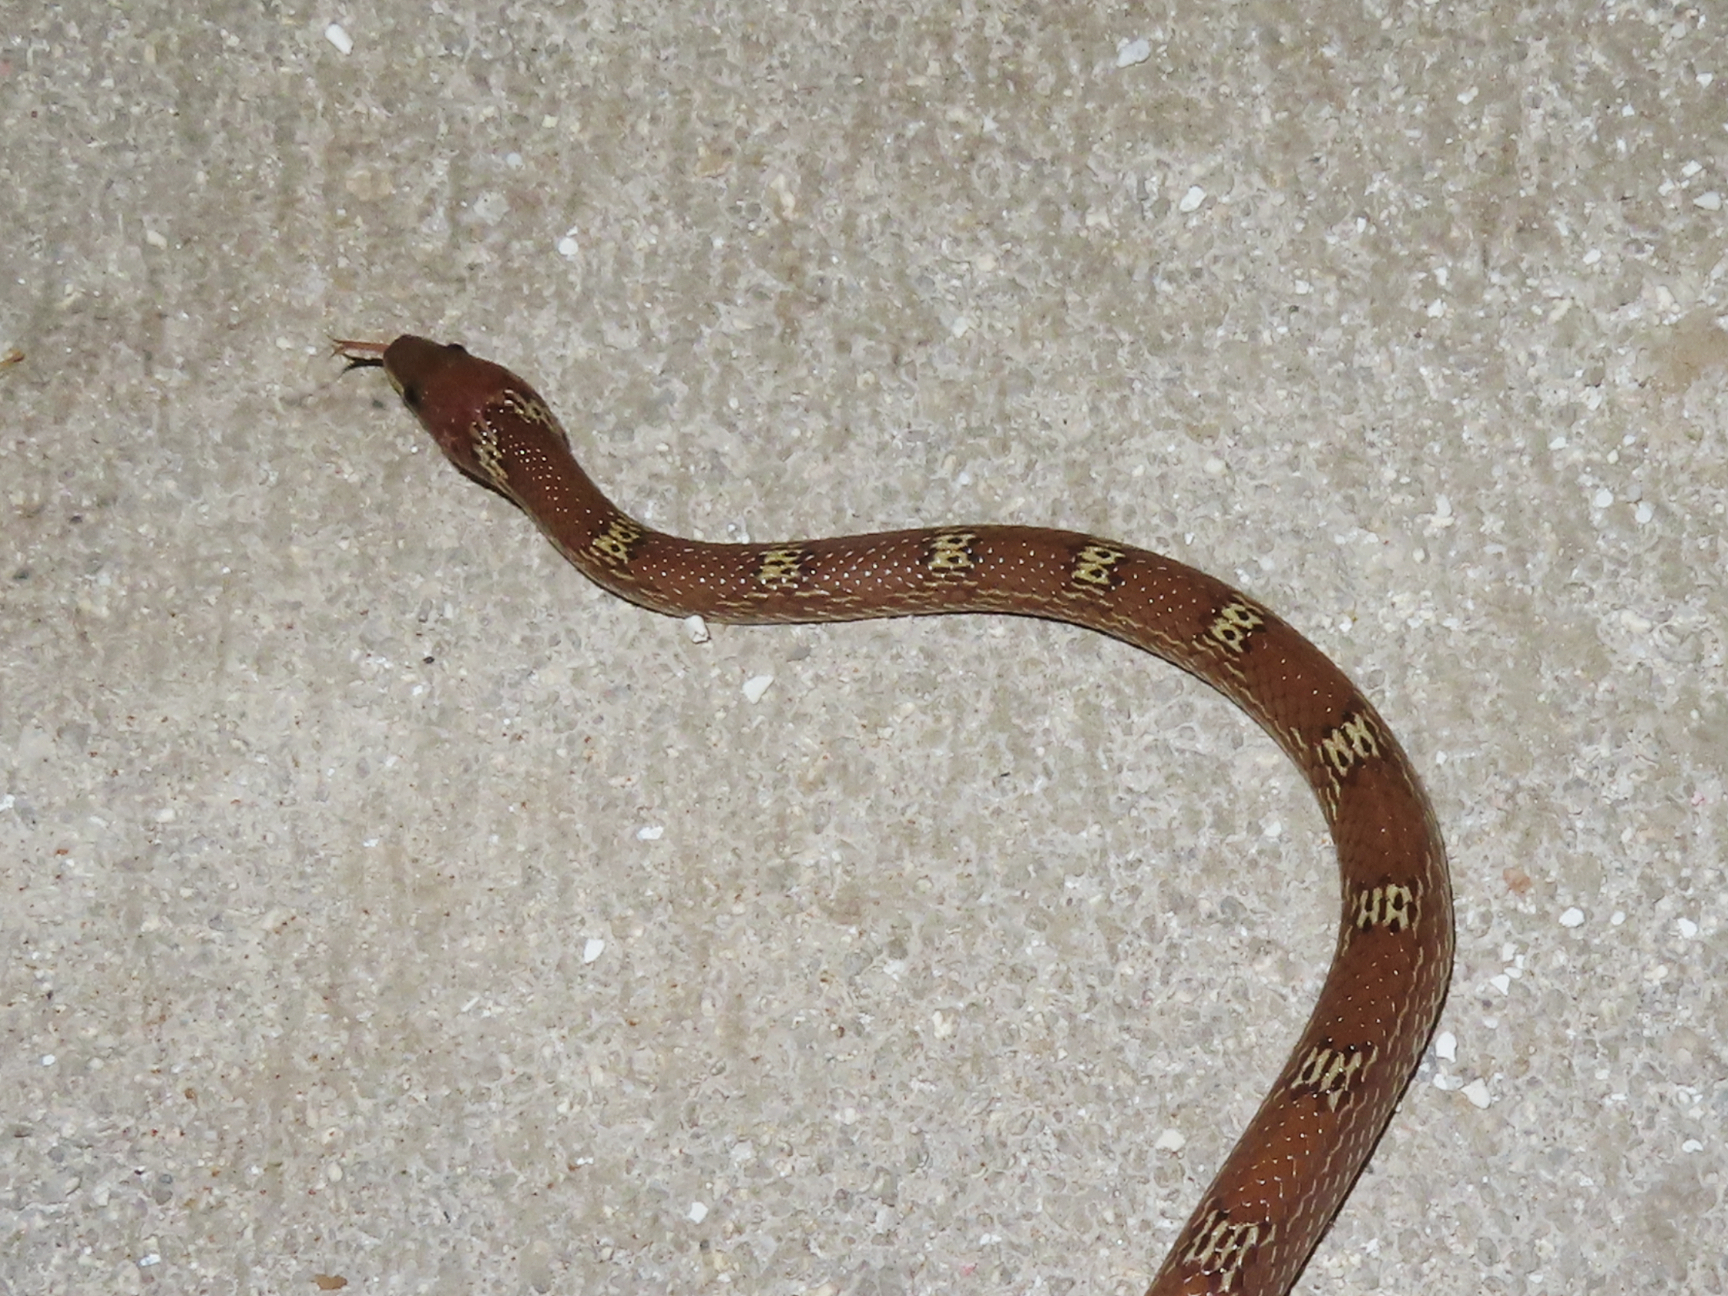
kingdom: Animalia
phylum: Chordata
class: Squamata
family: Colubridae
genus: Lycodon
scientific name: Lycodon aulicus
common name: Common wolf snake
